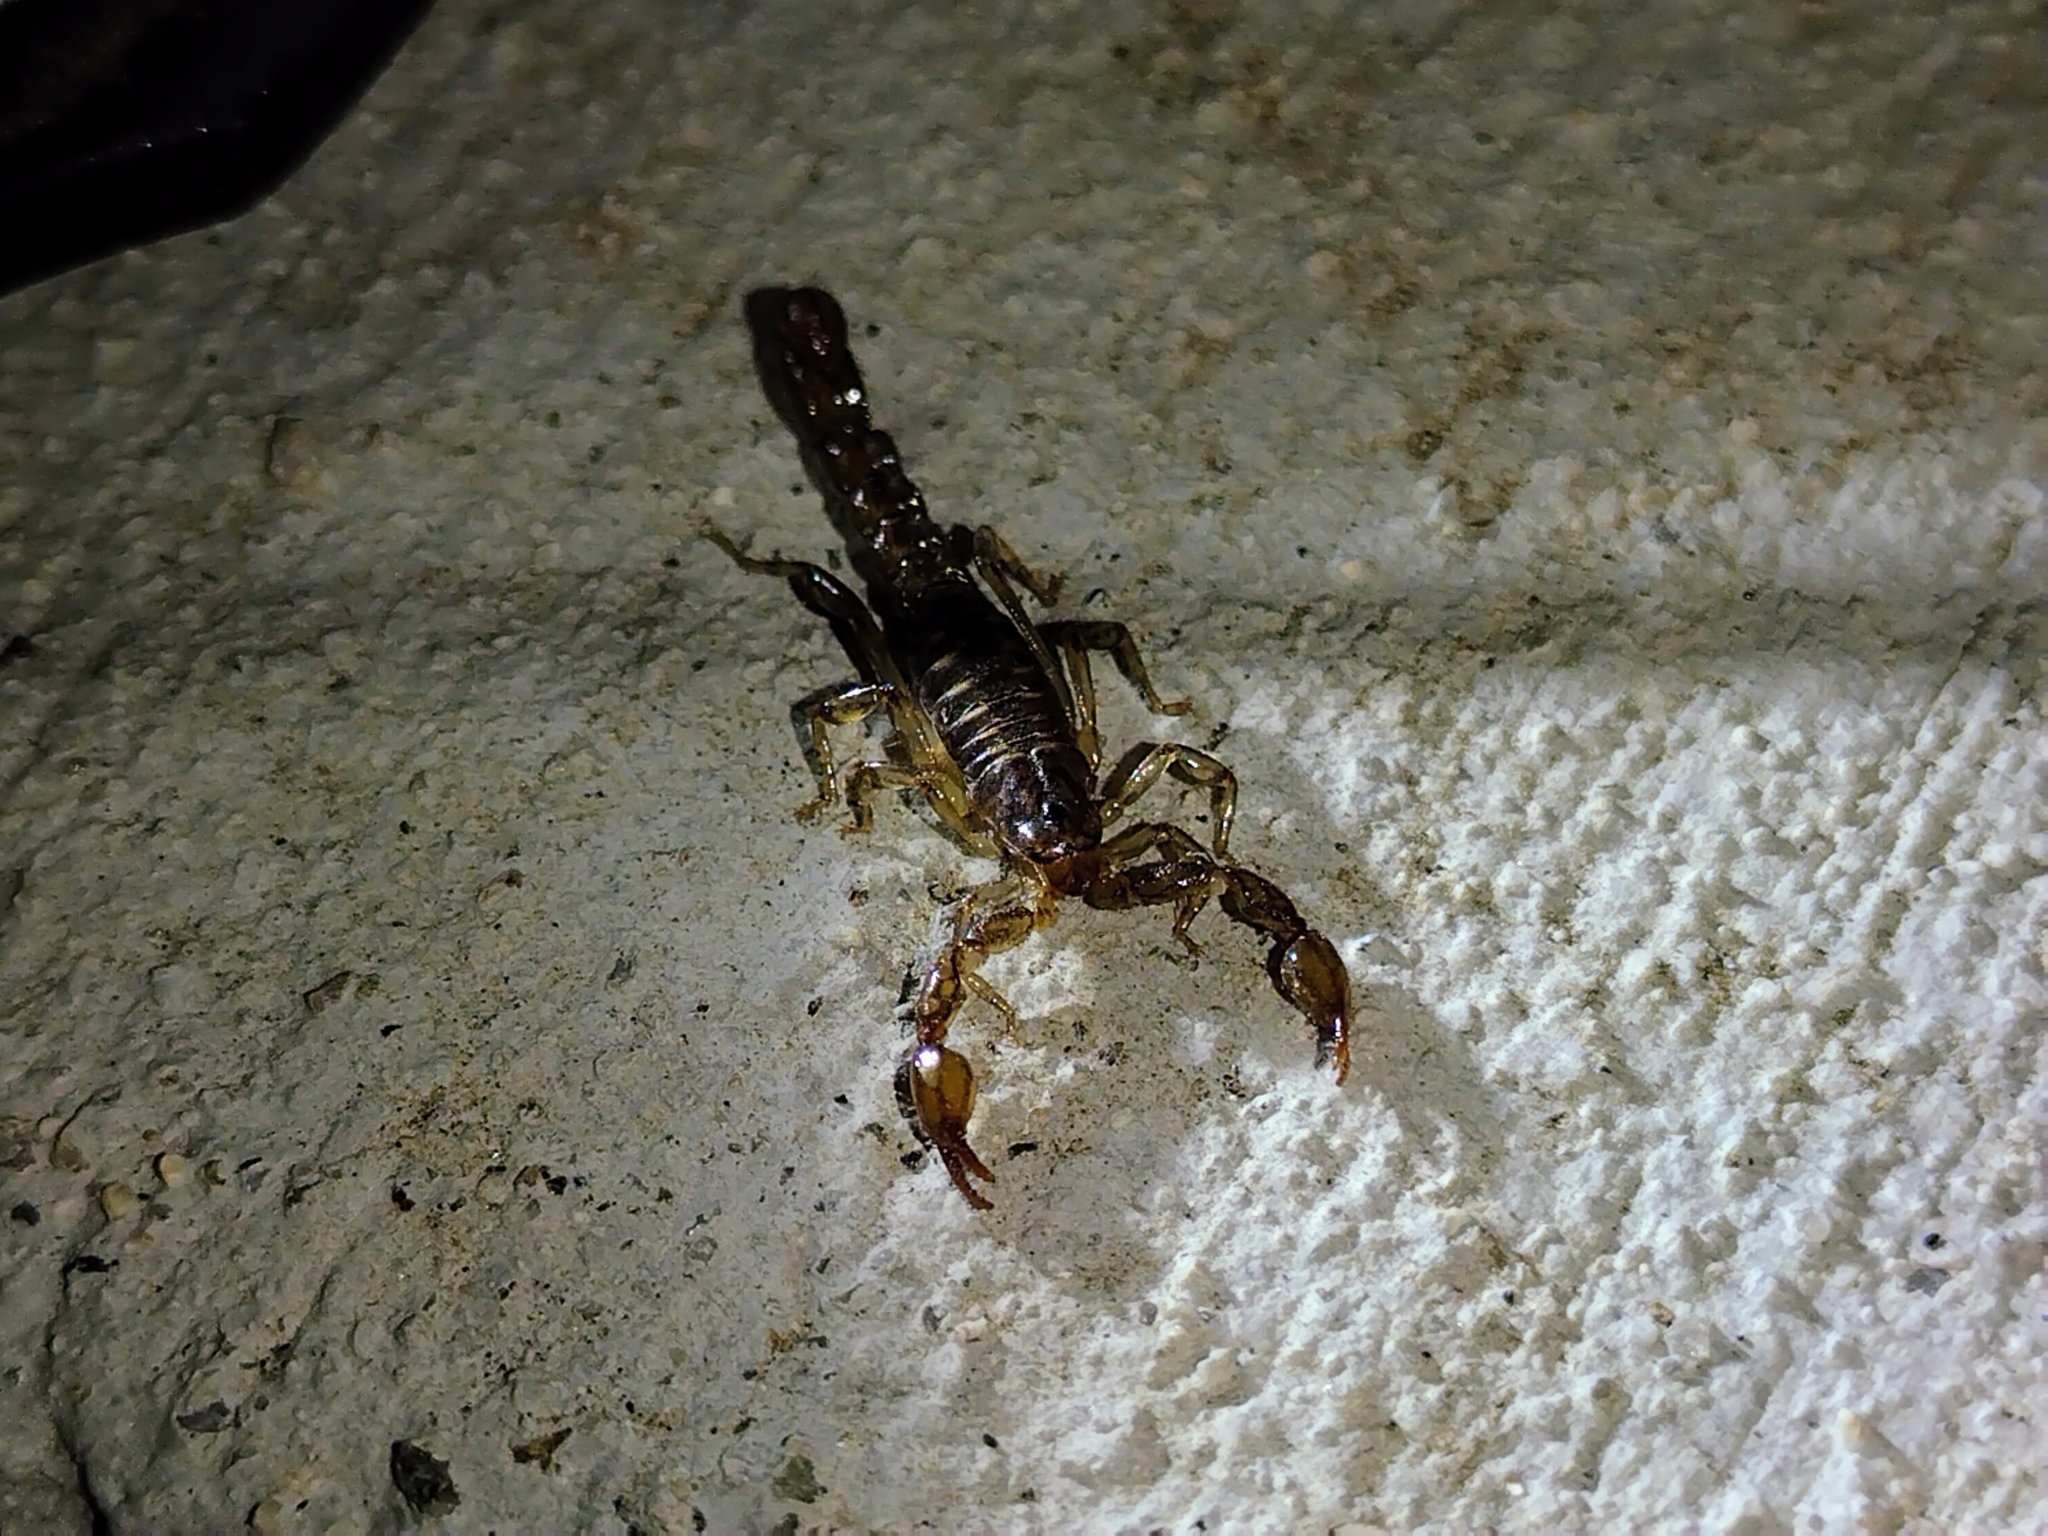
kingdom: Animalia
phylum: Arthropoda
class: Arachnida
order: Scorpiones
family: Superstitioniidae
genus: Superstitionia
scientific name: Superstitionia donensis
